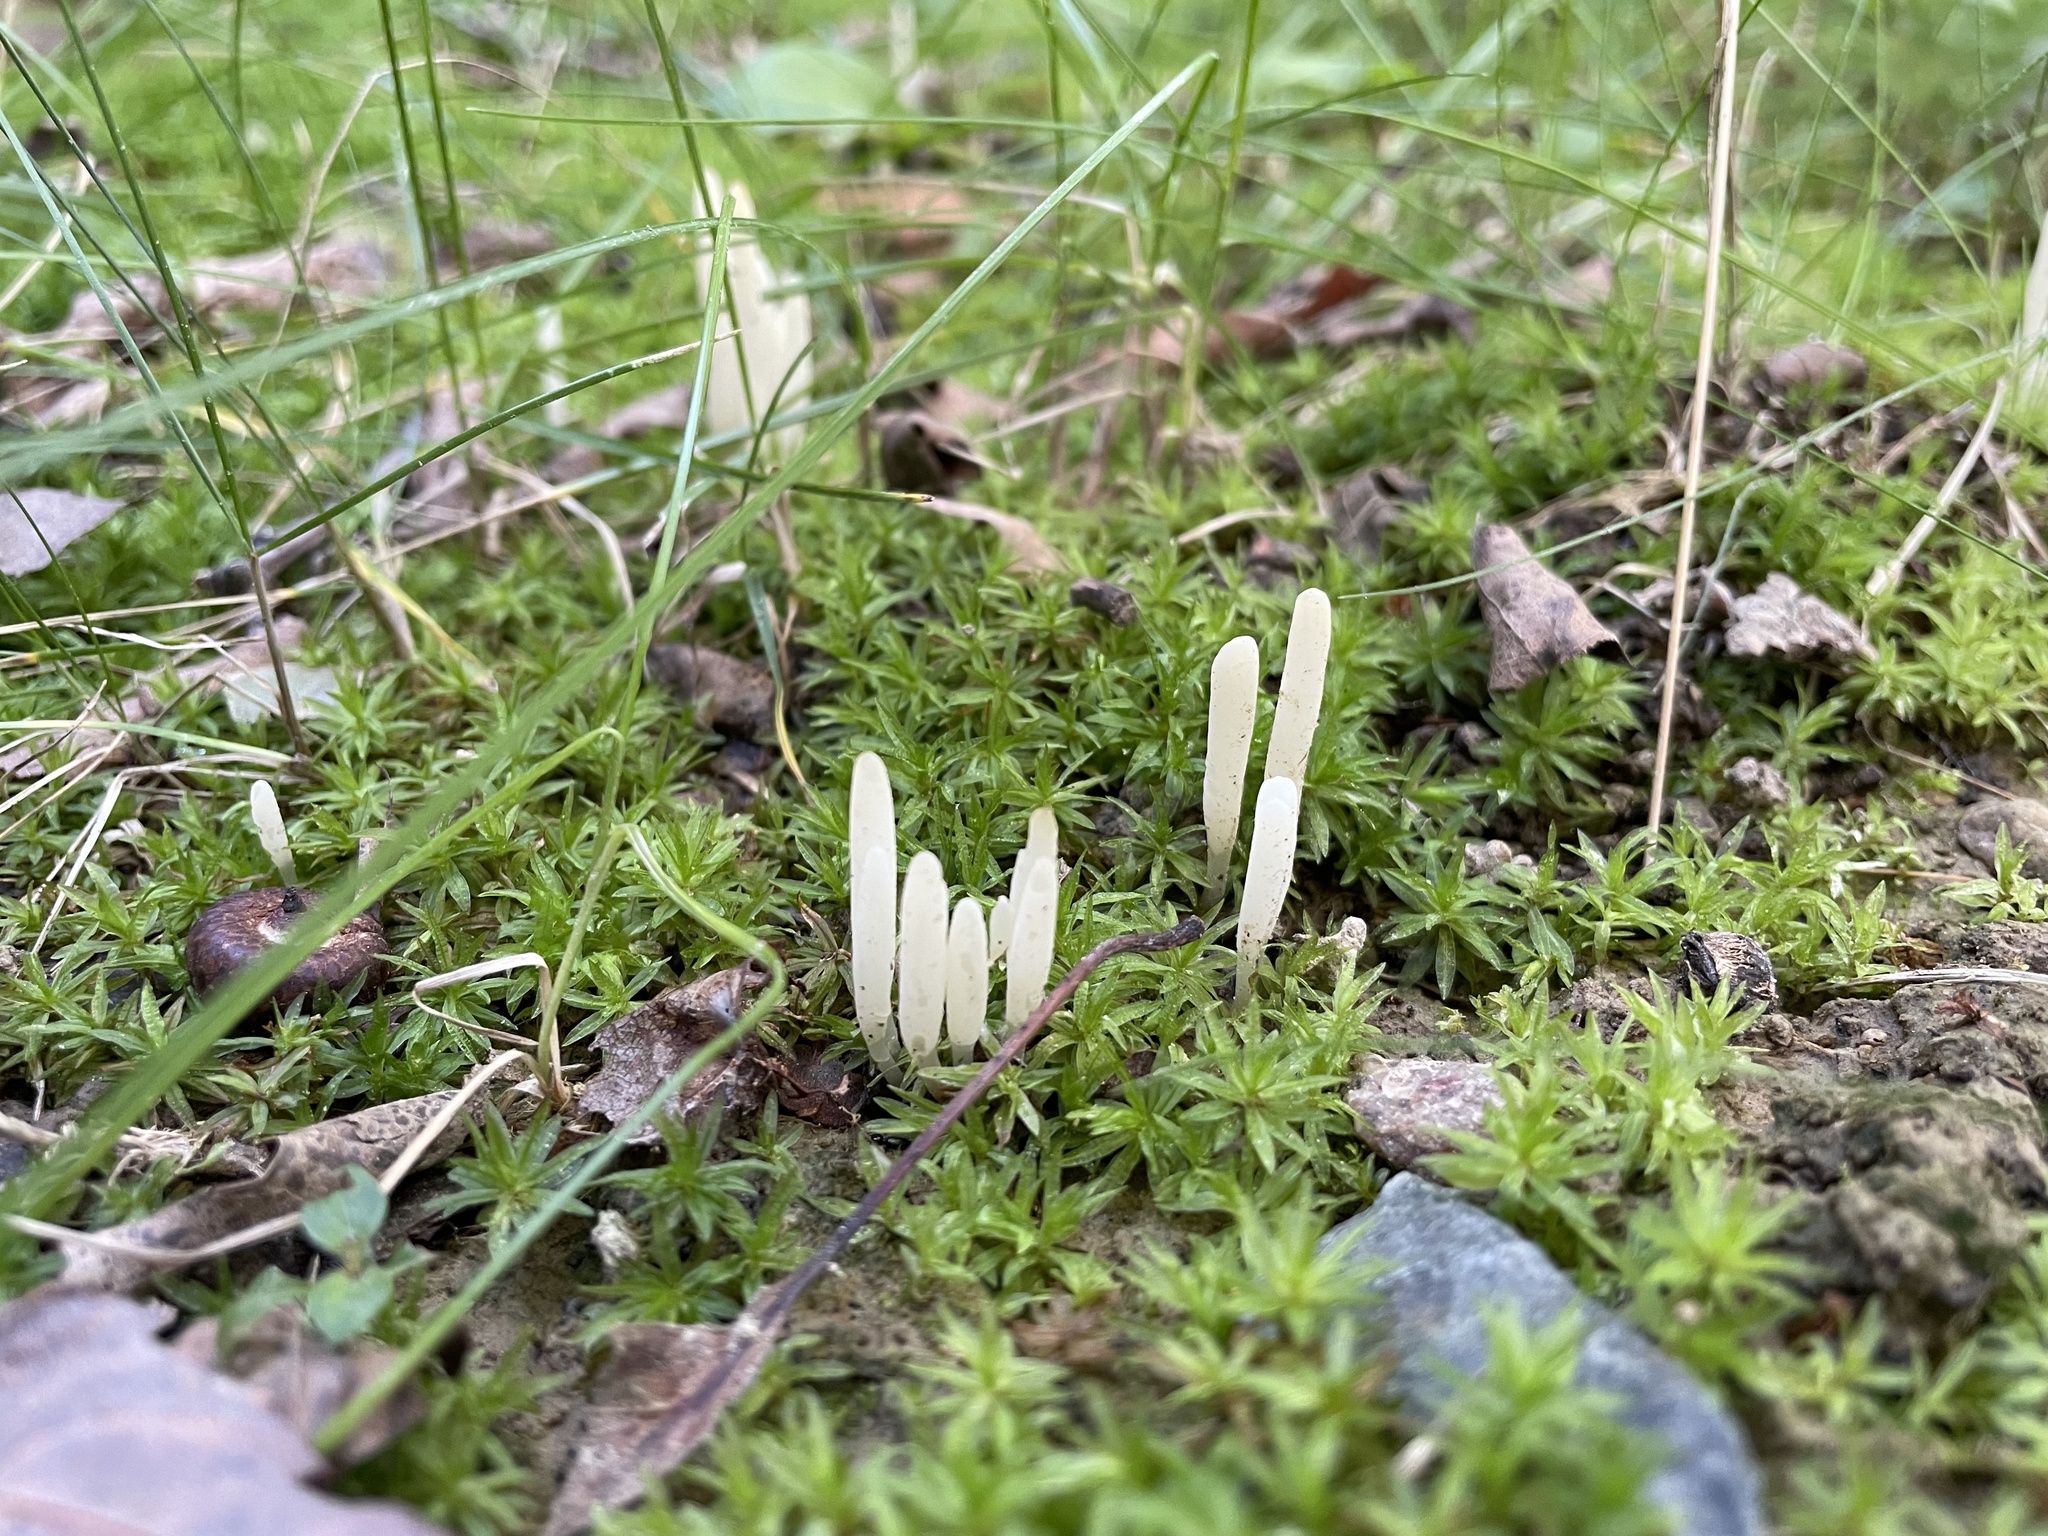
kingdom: Fungi
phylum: Basidiomycota
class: Agaricomycetes
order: Agaricales
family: Clavariaceae
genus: Clavaria
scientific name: Clavaria fragilis
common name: White spindles
